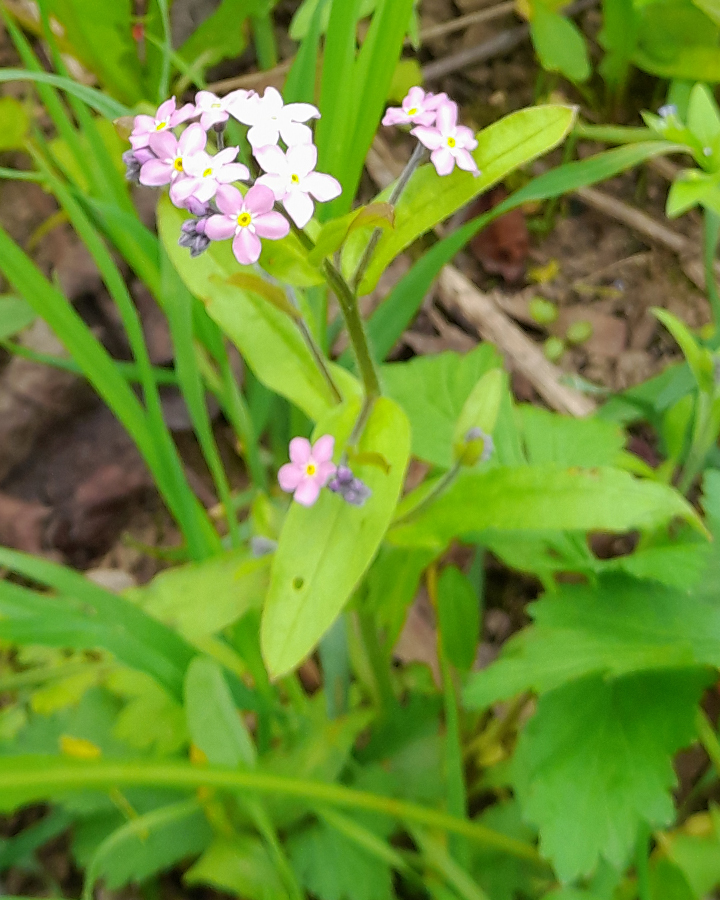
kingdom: Plantae
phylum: Tracheophyta
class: Magnoliopsida
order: Boraginales
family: Boraginaceae
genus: Myosotis
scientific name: Myosotis sylvatica
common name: Wood forget-me-not
